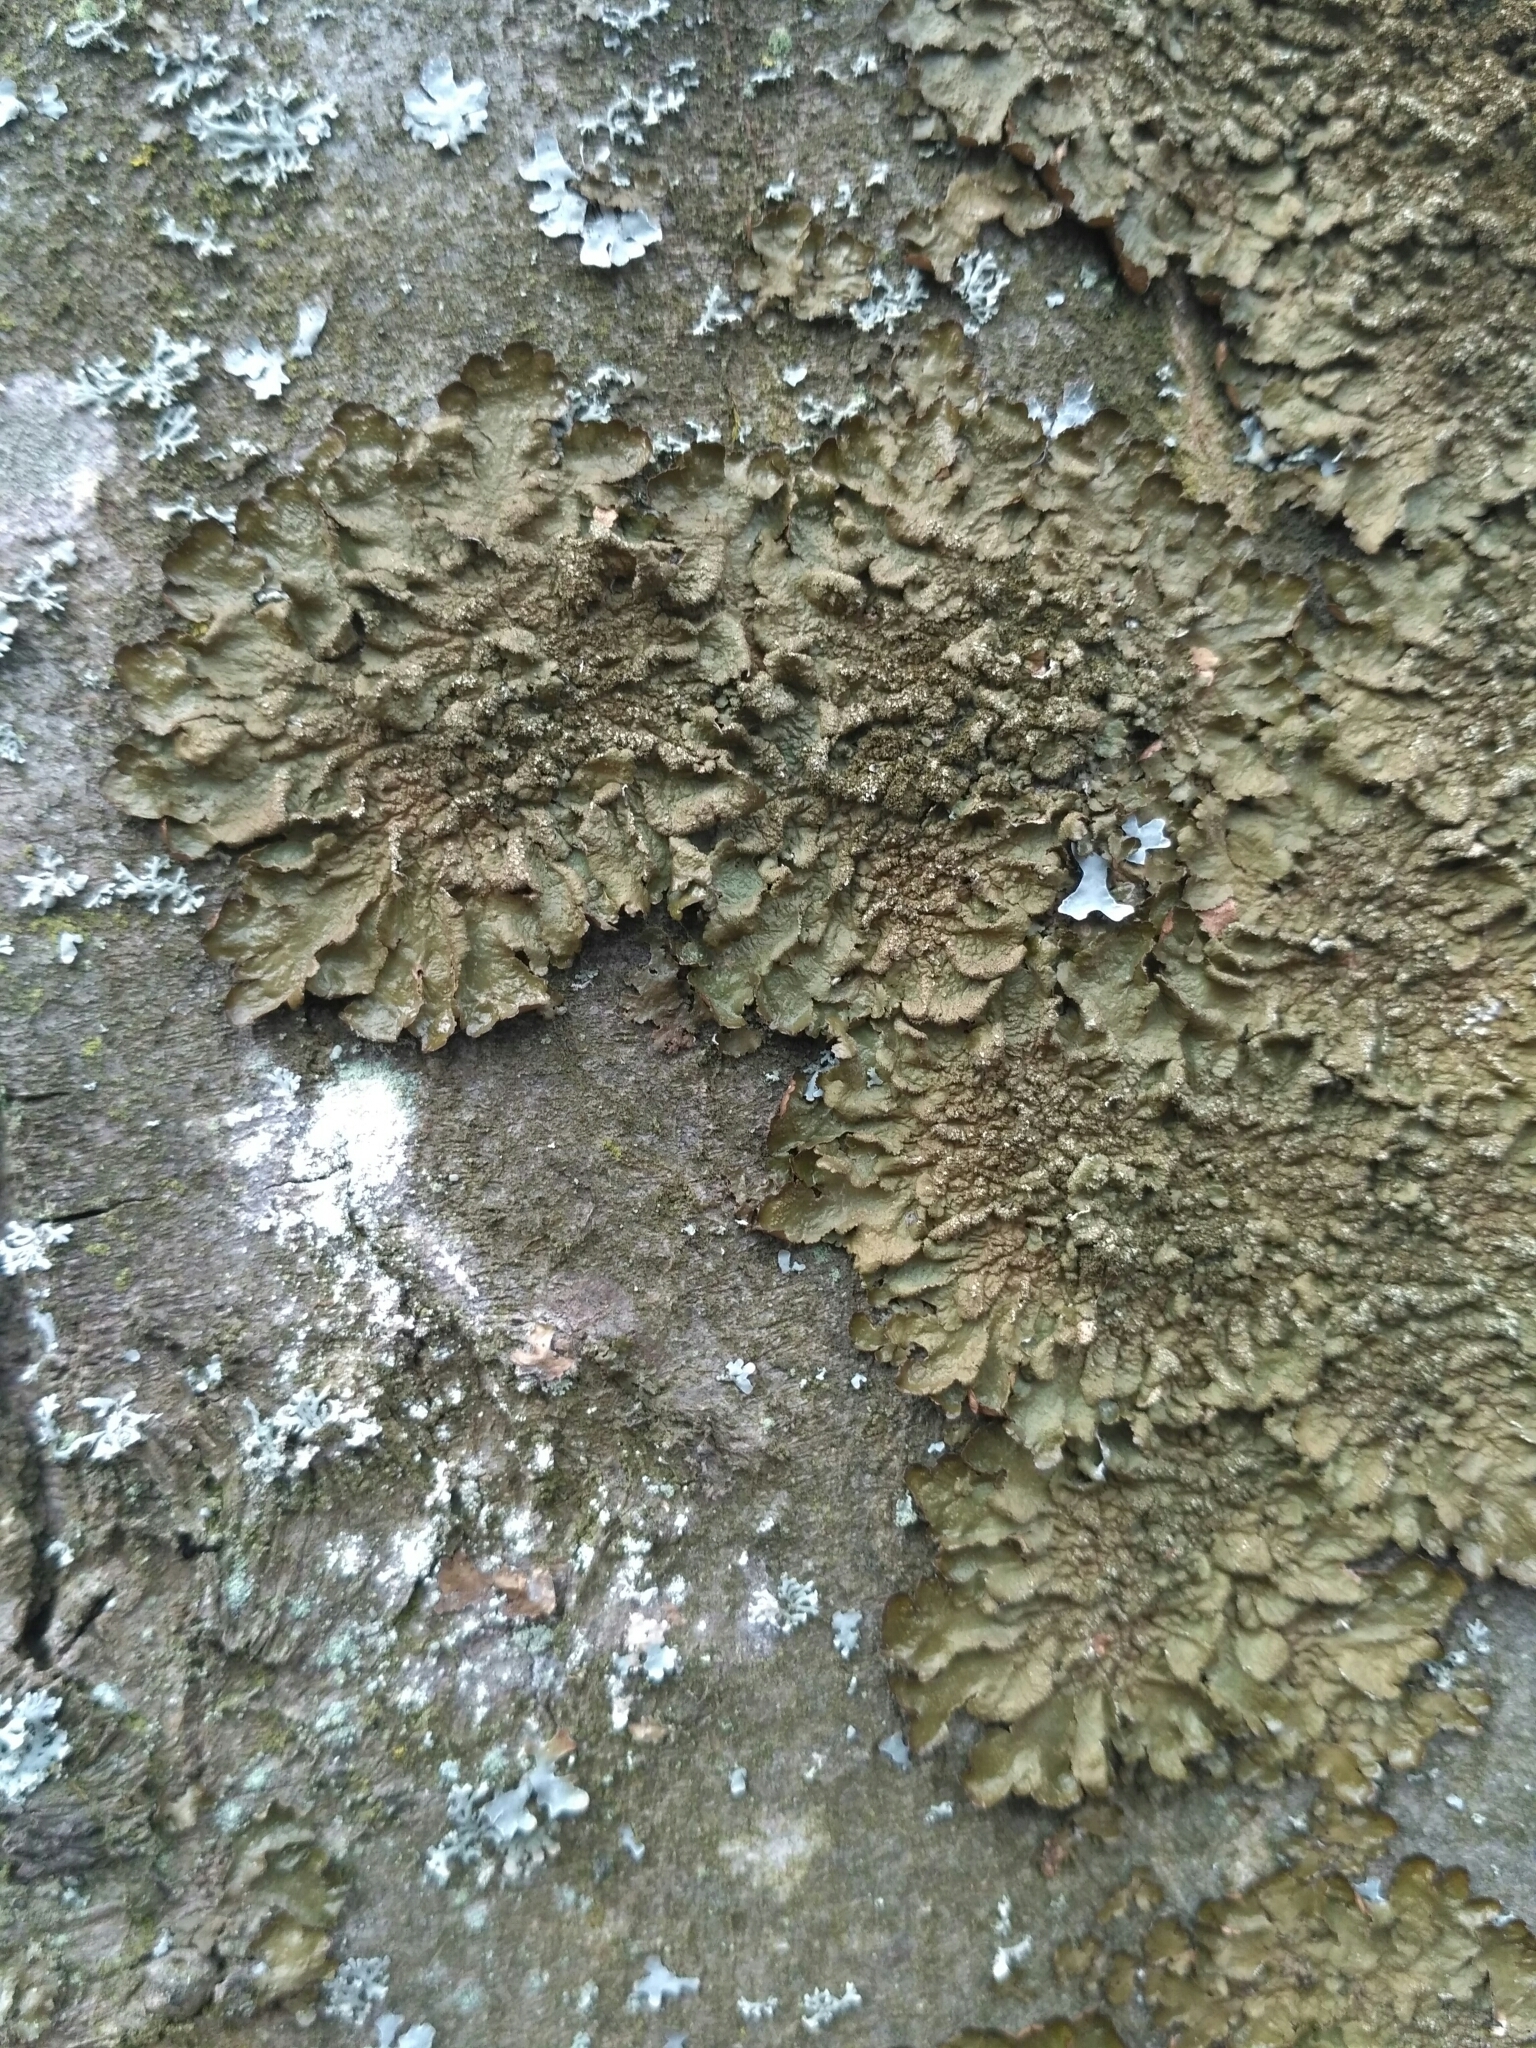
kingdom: Fungi
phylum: Ascomycota
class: Lecanoromycetes
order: Lecanorales
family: Parmeliaceae
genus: Melanelixia
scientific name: Melanelixia glabratula
